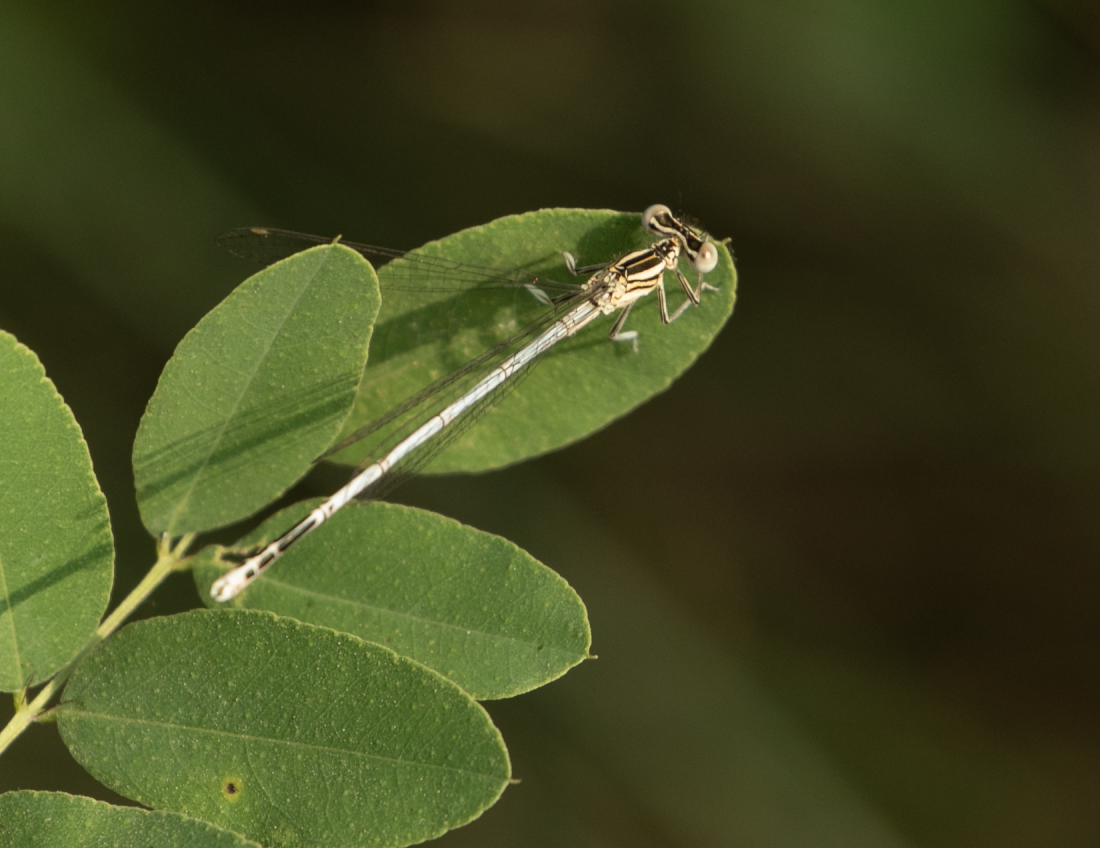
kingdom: Animalia
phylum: Arthropoda
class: Insecta
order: Odonata
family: Platycnemididae
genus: Platycnemis
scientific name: Platycnemis pennipes
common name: White-legged damselfly
